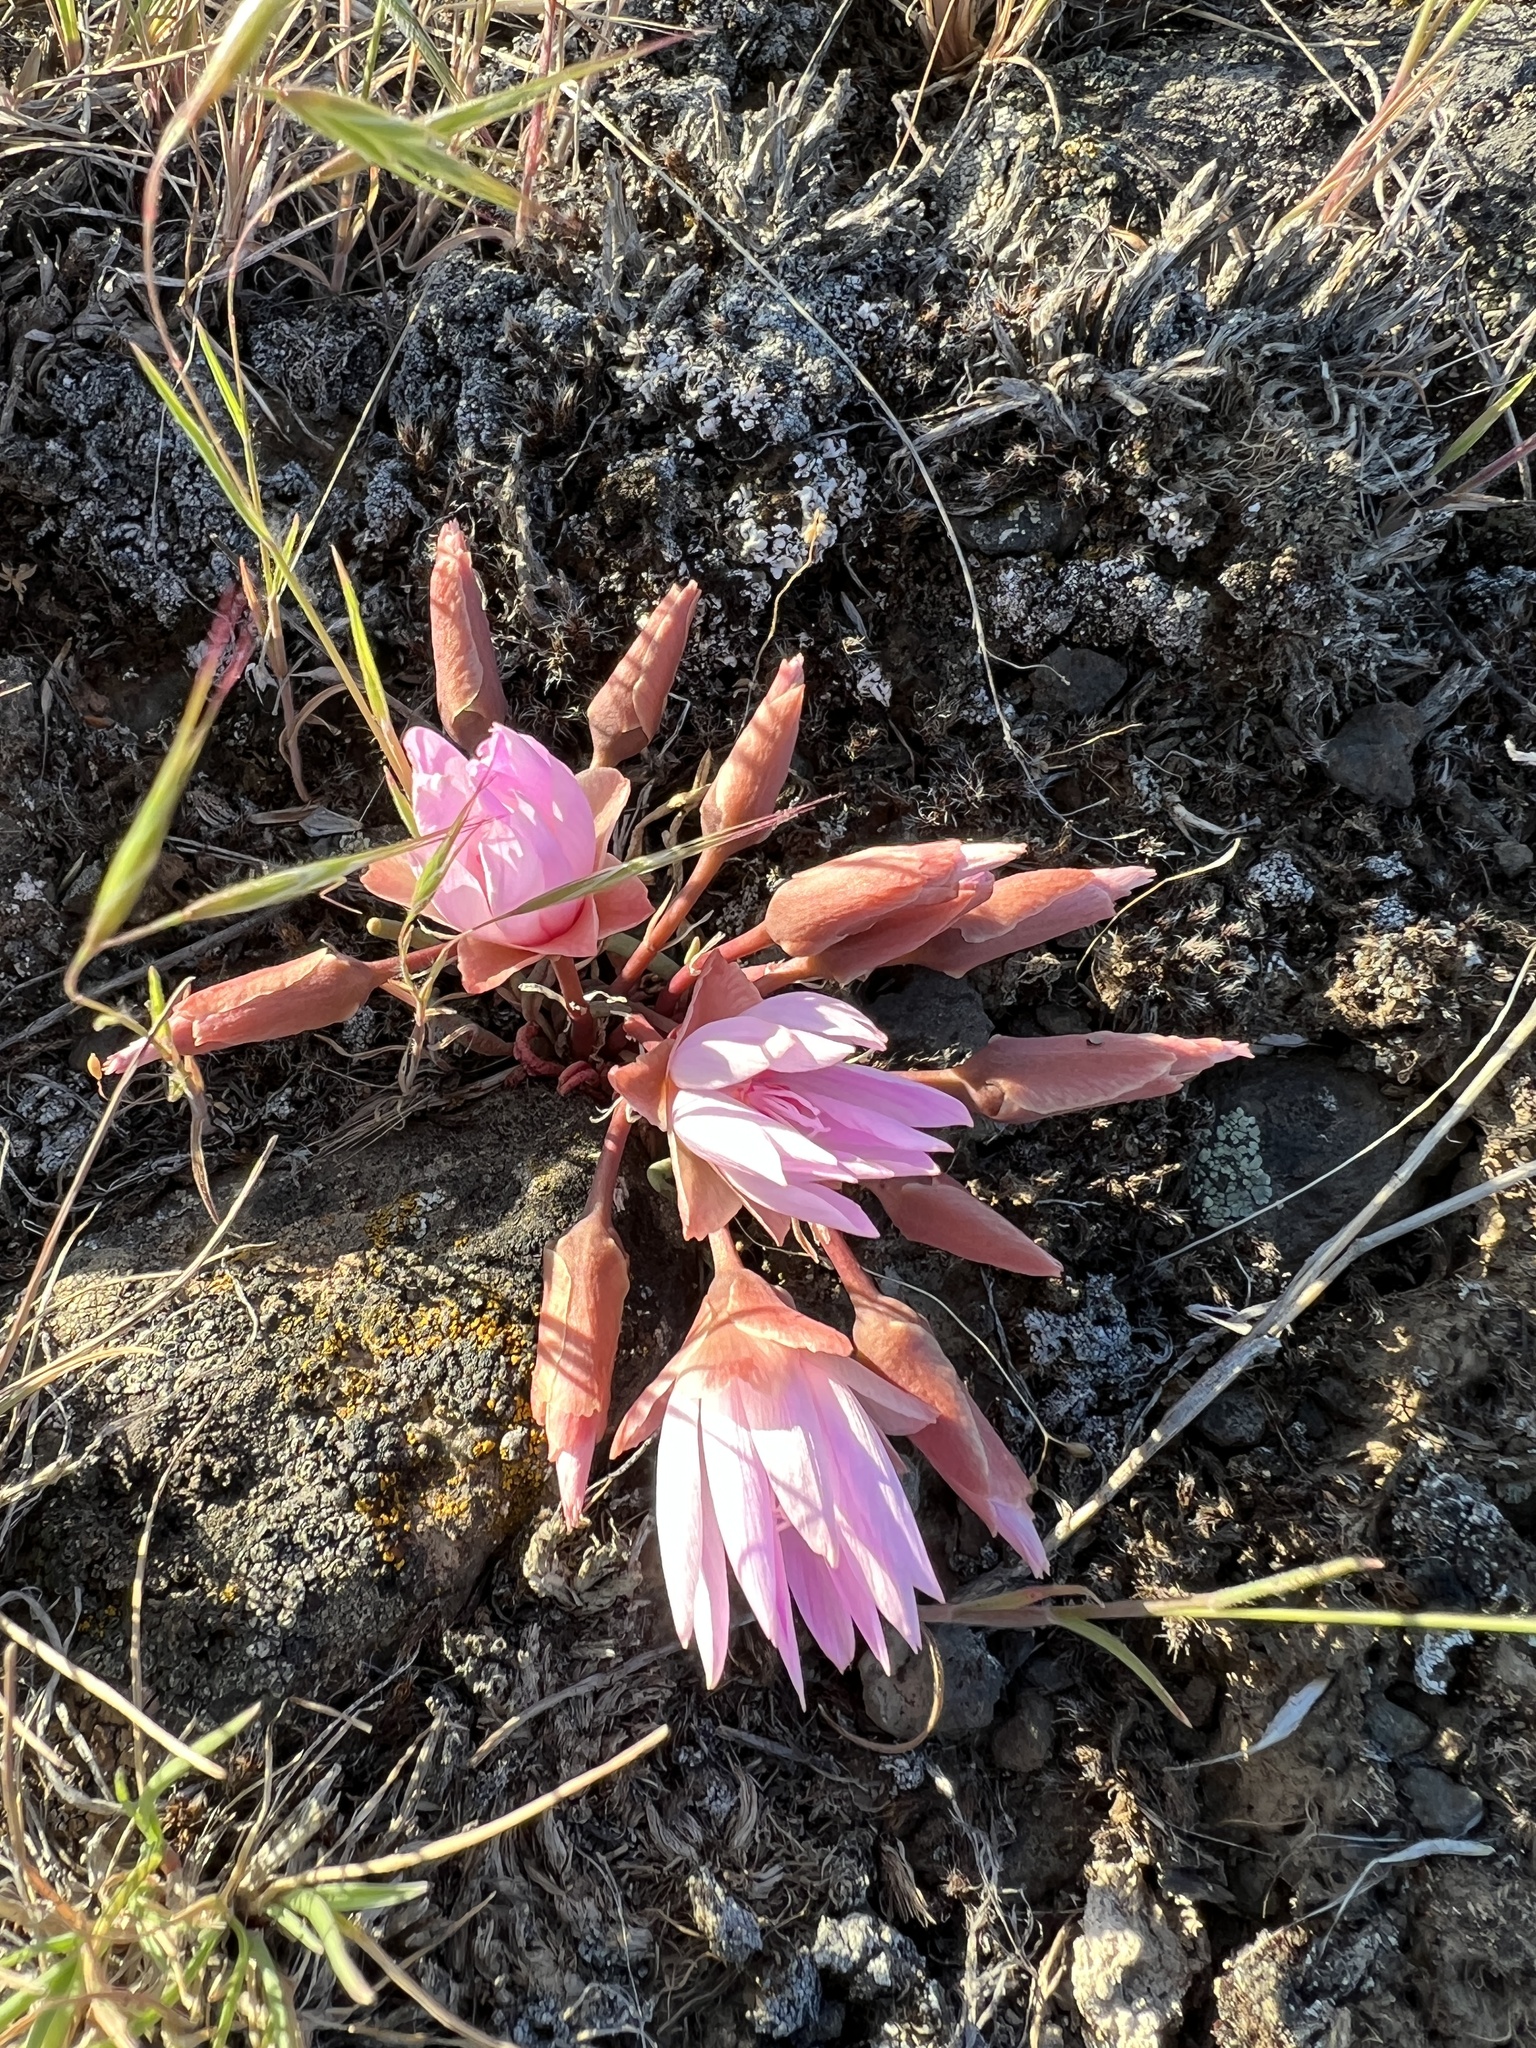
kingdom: Plantae
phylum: Tracheophyta
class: Magnoliopsida
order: Caryophyllales
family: Montiaceae
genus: Lewisia
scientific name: Lewisia rediviva
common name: Bitter-root
